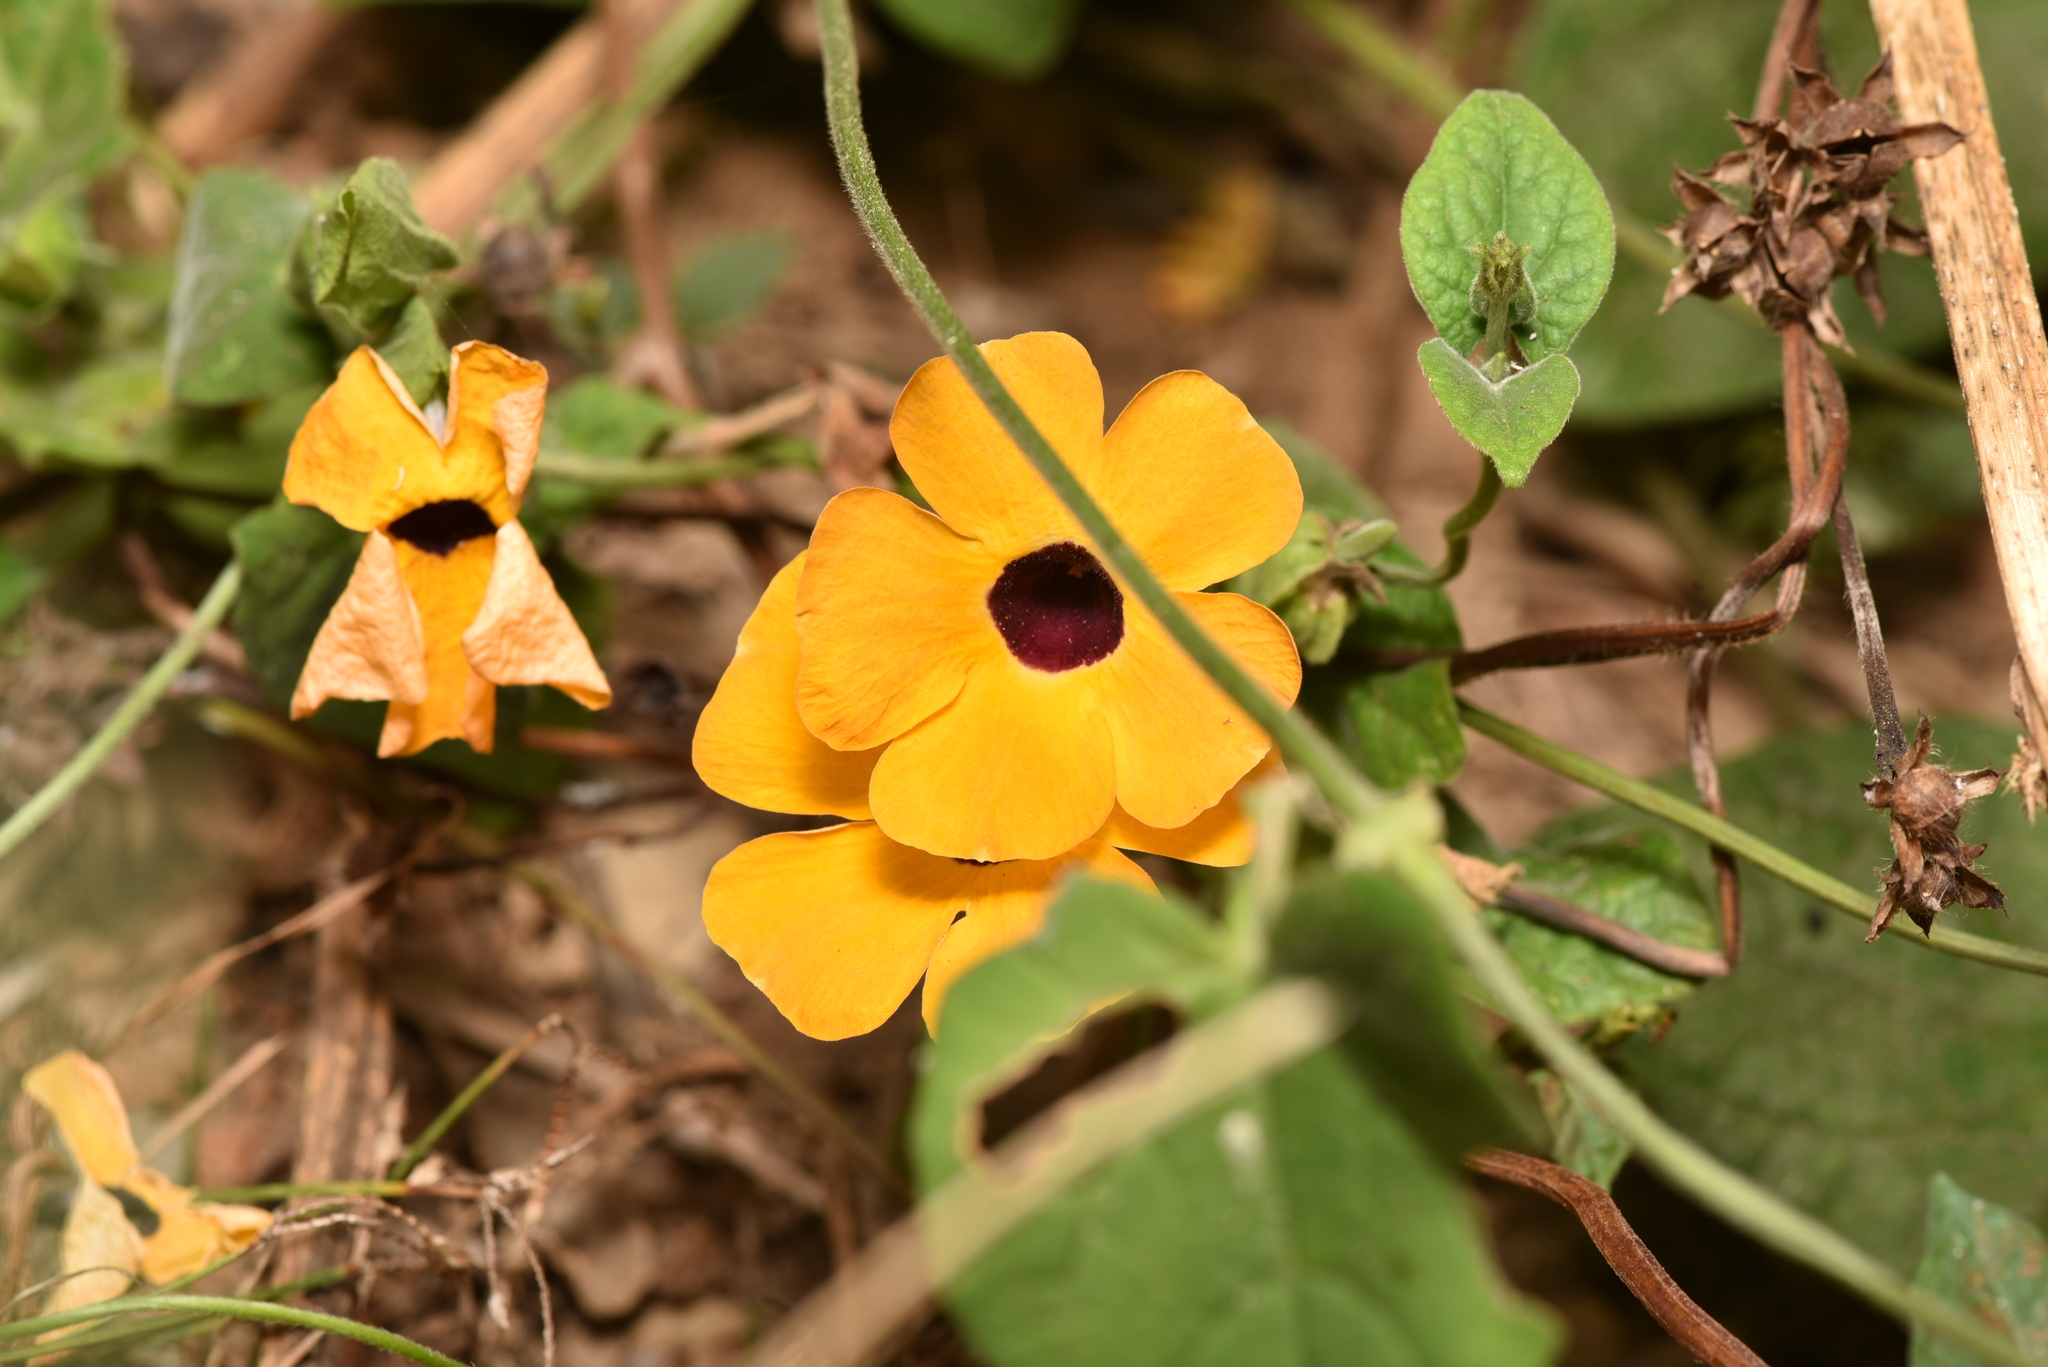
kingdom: Plantae
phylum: Tracheophyta
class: Magnoliopsida
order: Lamiales
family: Acanthaceae
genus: Thunbergia
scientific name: Thunbergia alata
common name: Blackeyed susan vine
